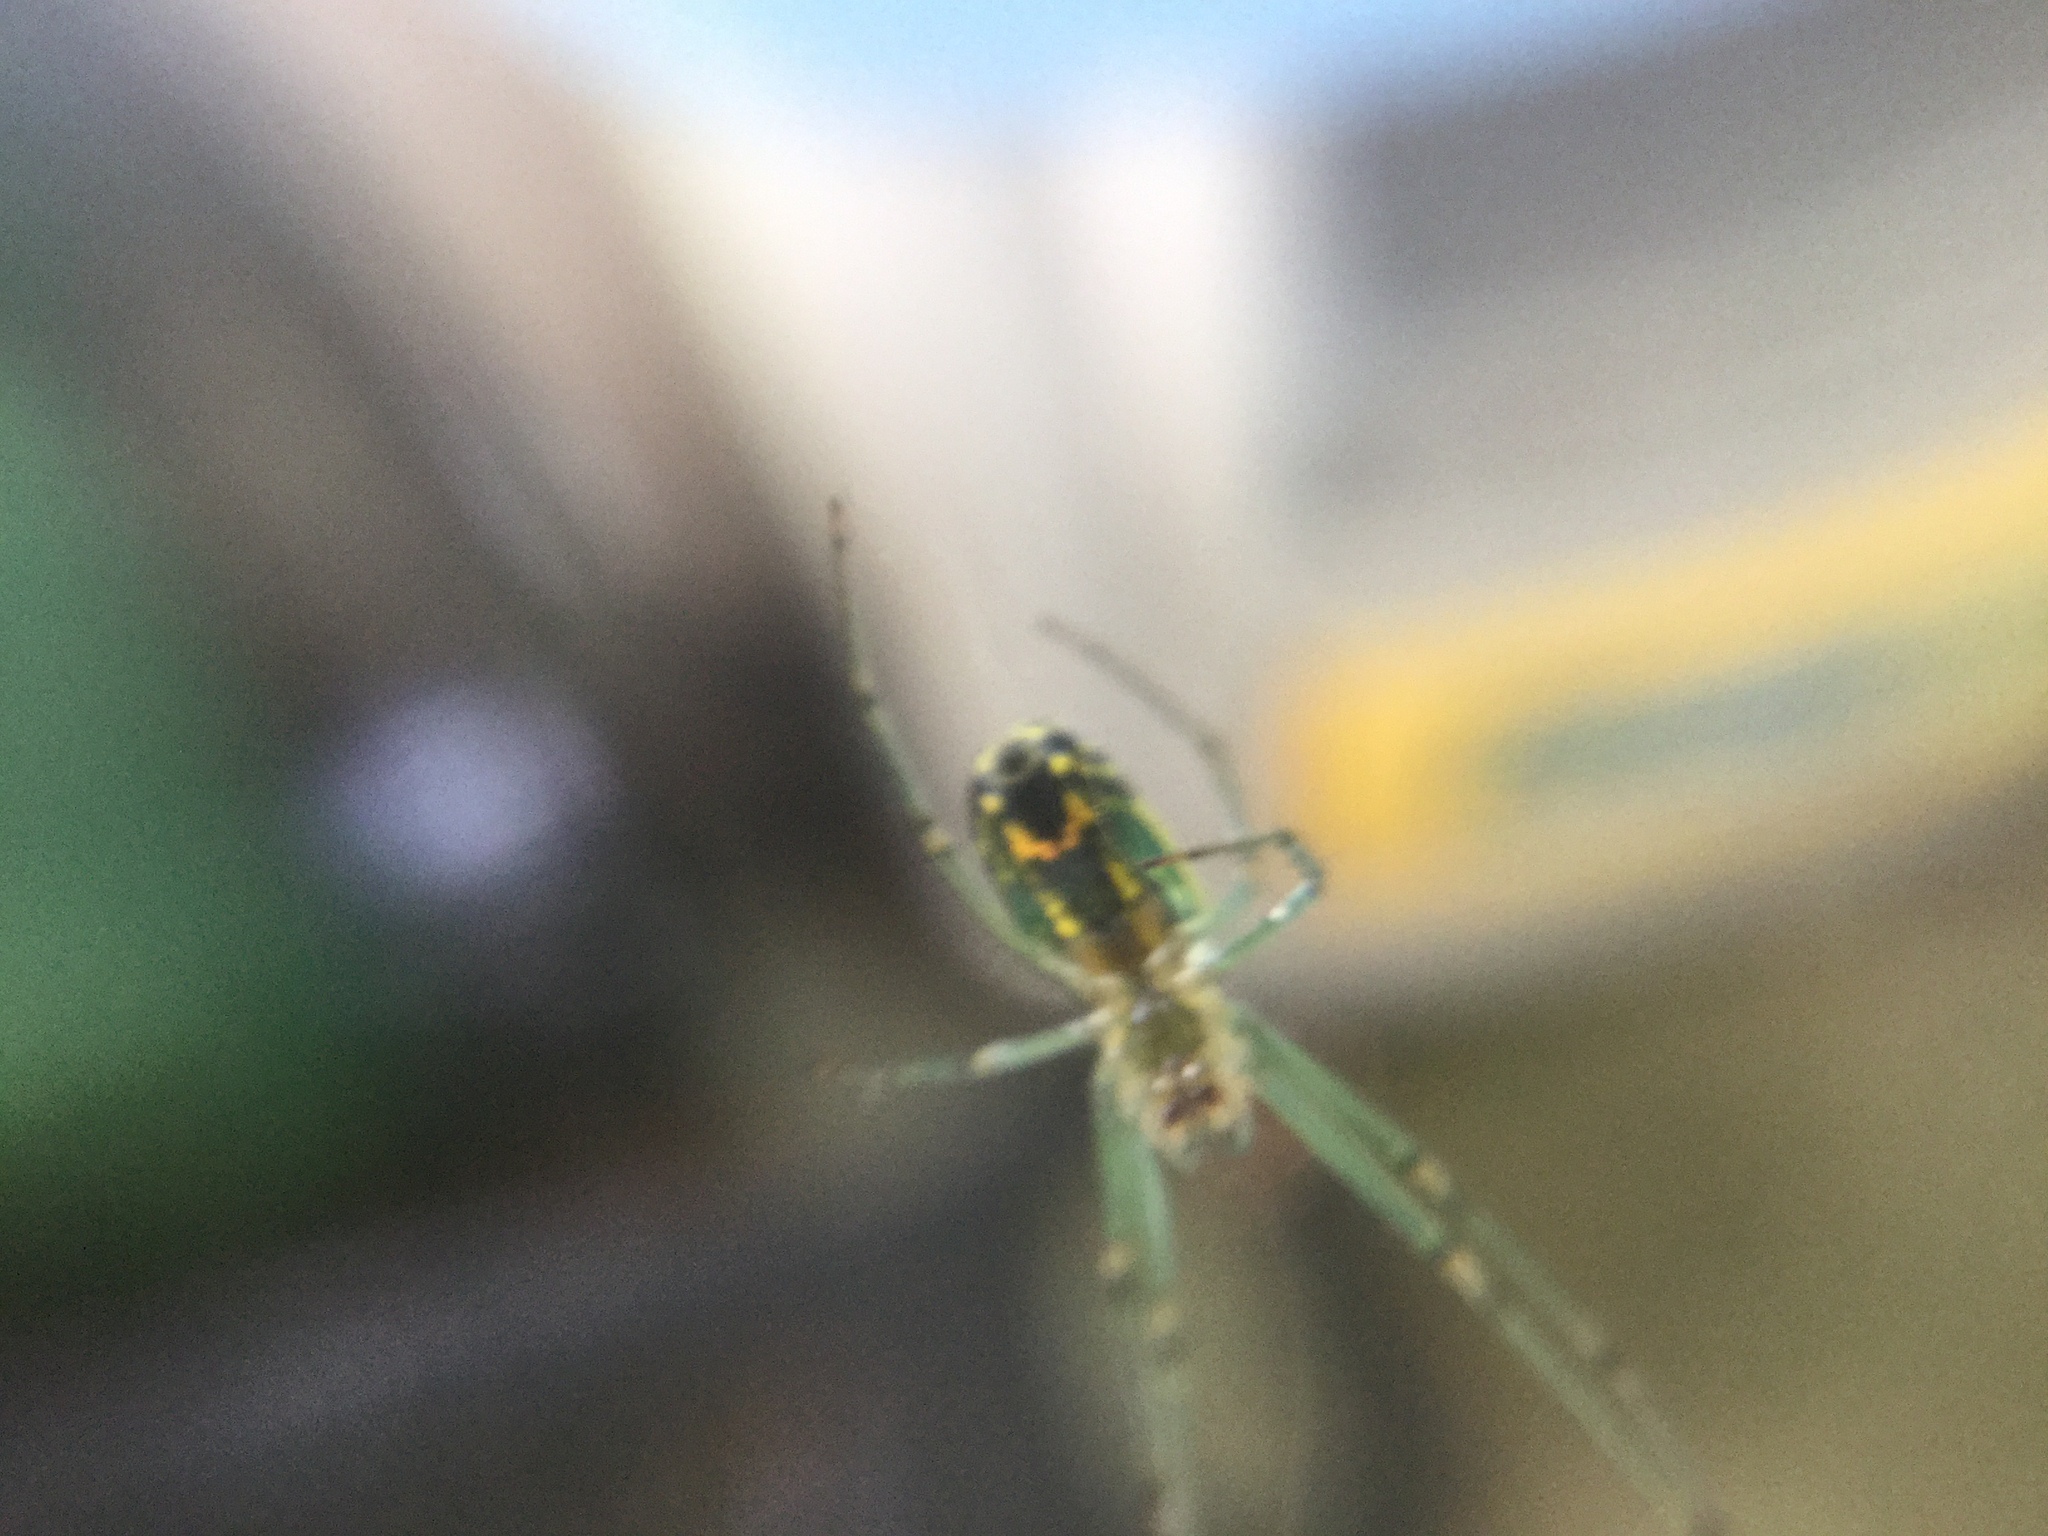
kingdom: Animalia
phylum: Arthropoda
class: Arachnida
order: Araneae
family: Tetragnathidae
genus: Leucauge
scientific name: Leucauge venusta
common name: Longjawed orb weavers
